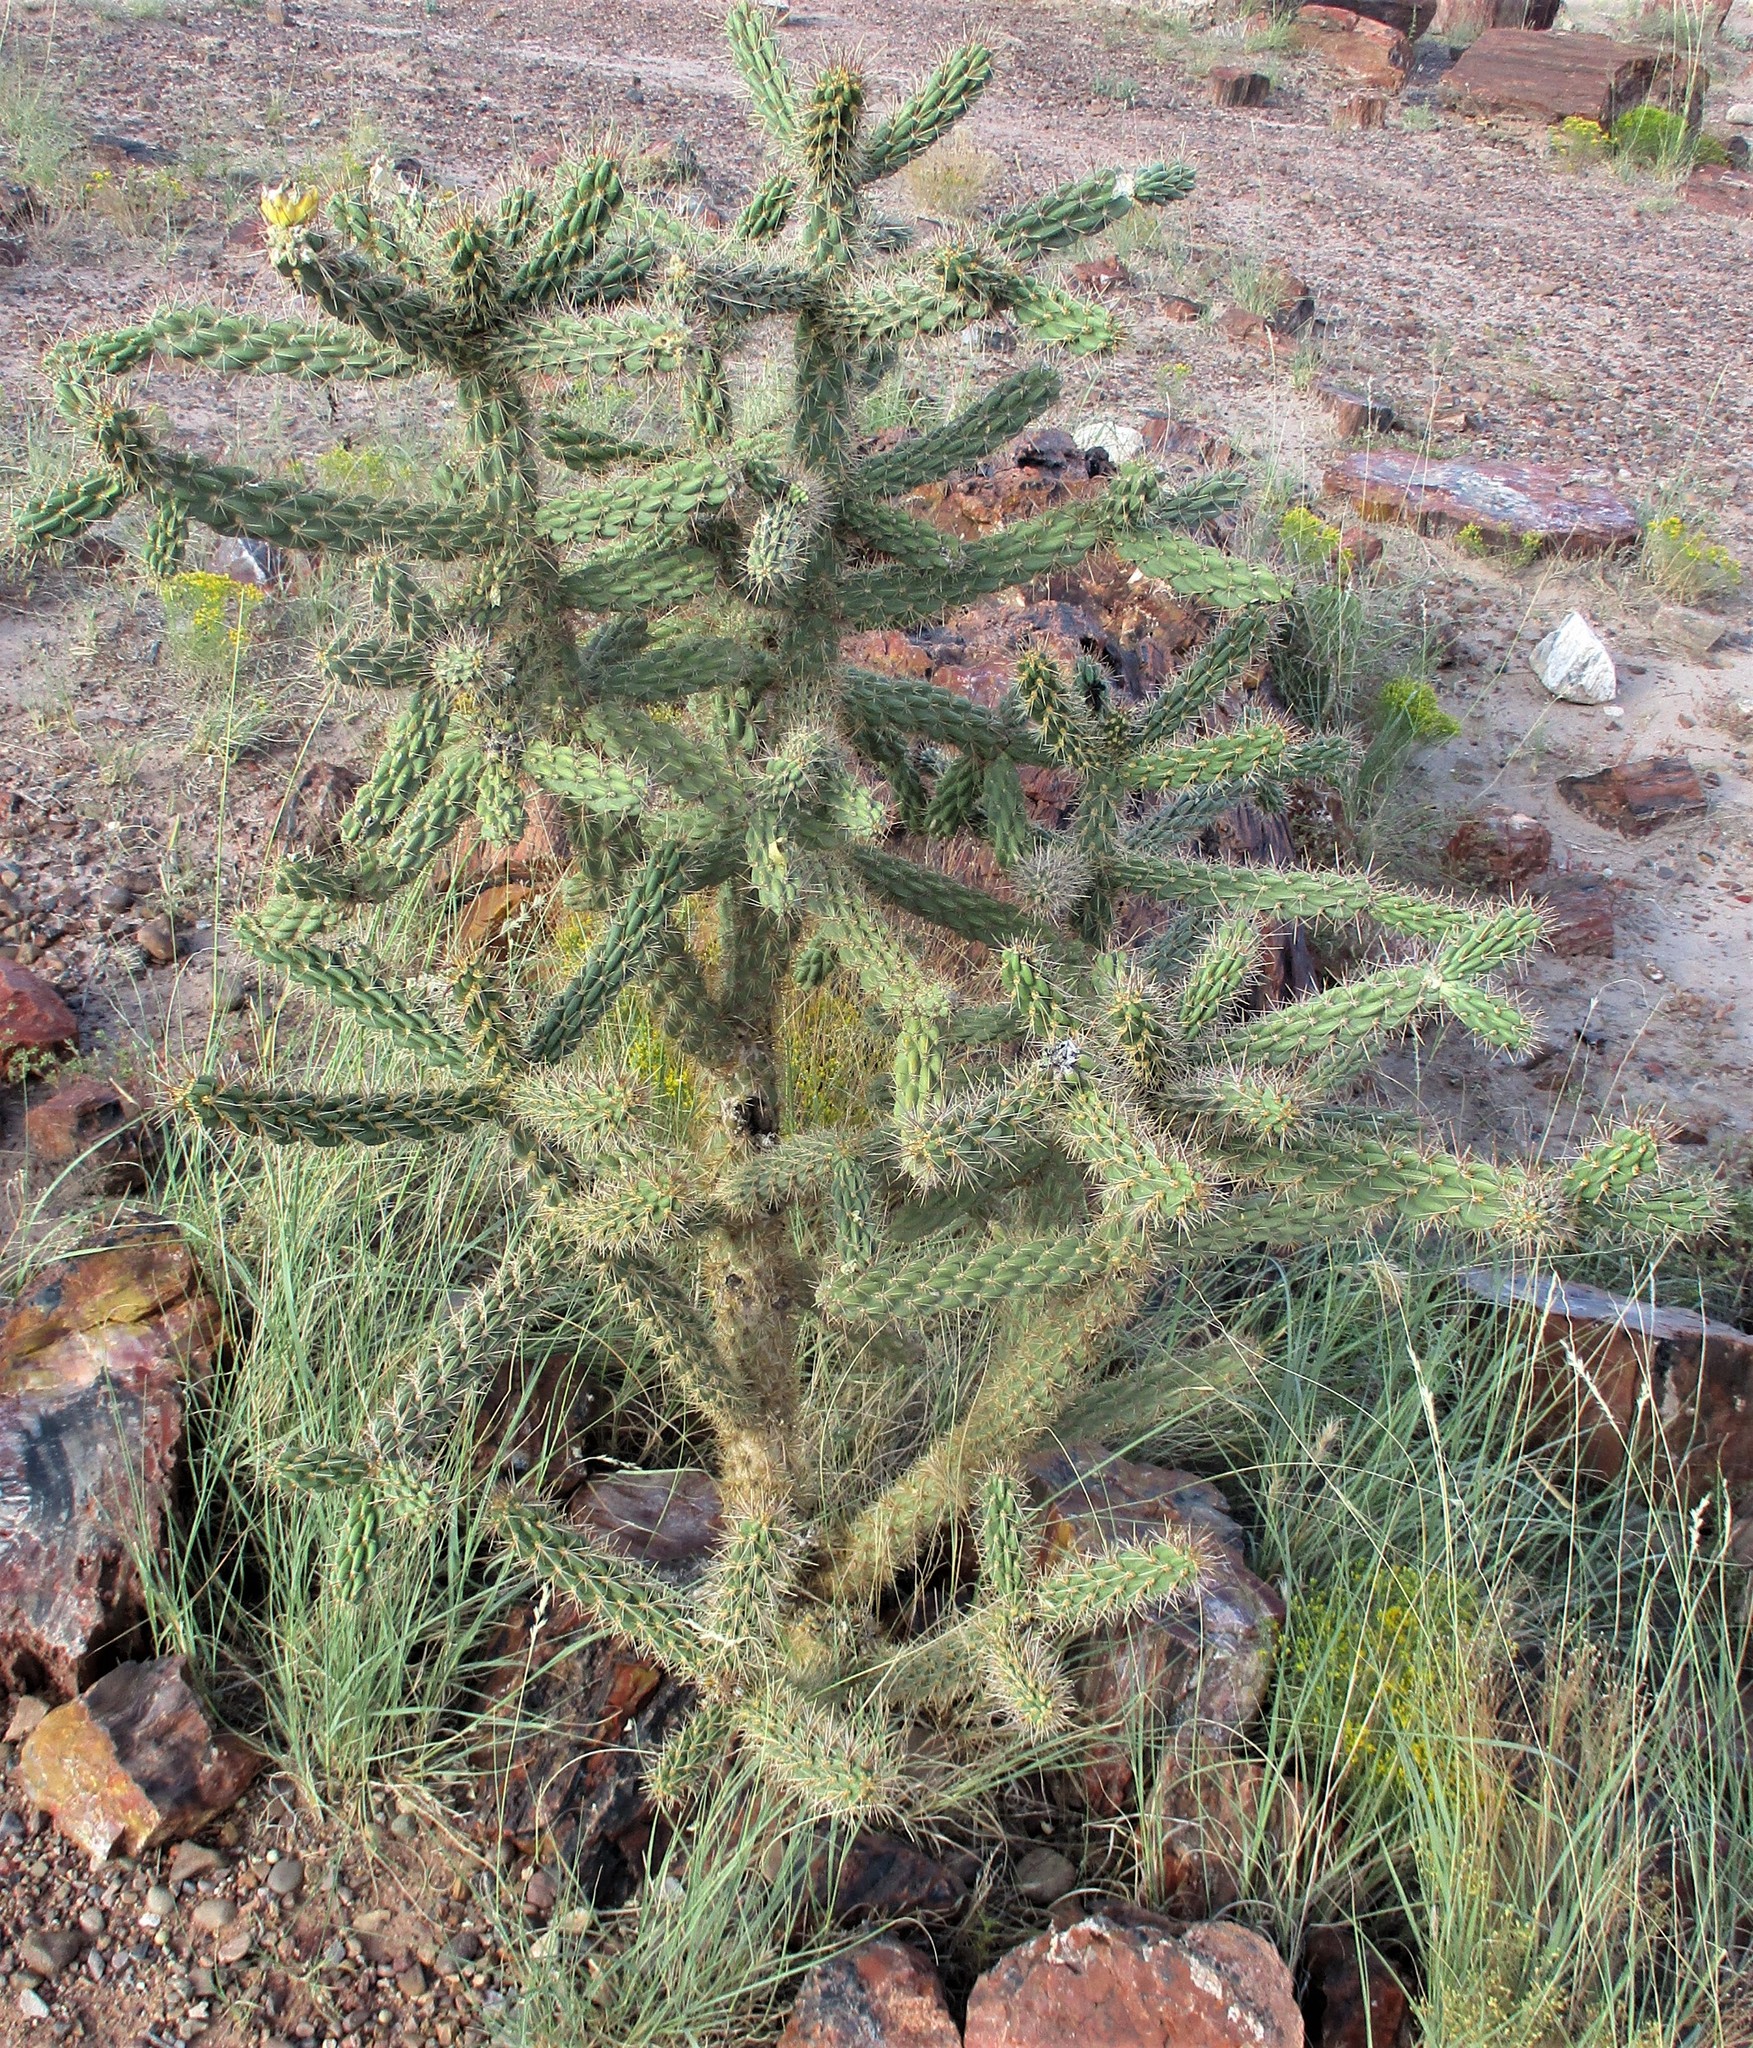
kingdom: Plantae
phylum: Tracheophyta
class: Magnoliopsida
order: Caryophyllales
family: Cactaceae
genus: Cylindropuntia
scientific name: Cylindropuntia imbricata
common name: Candelabrum cactus
